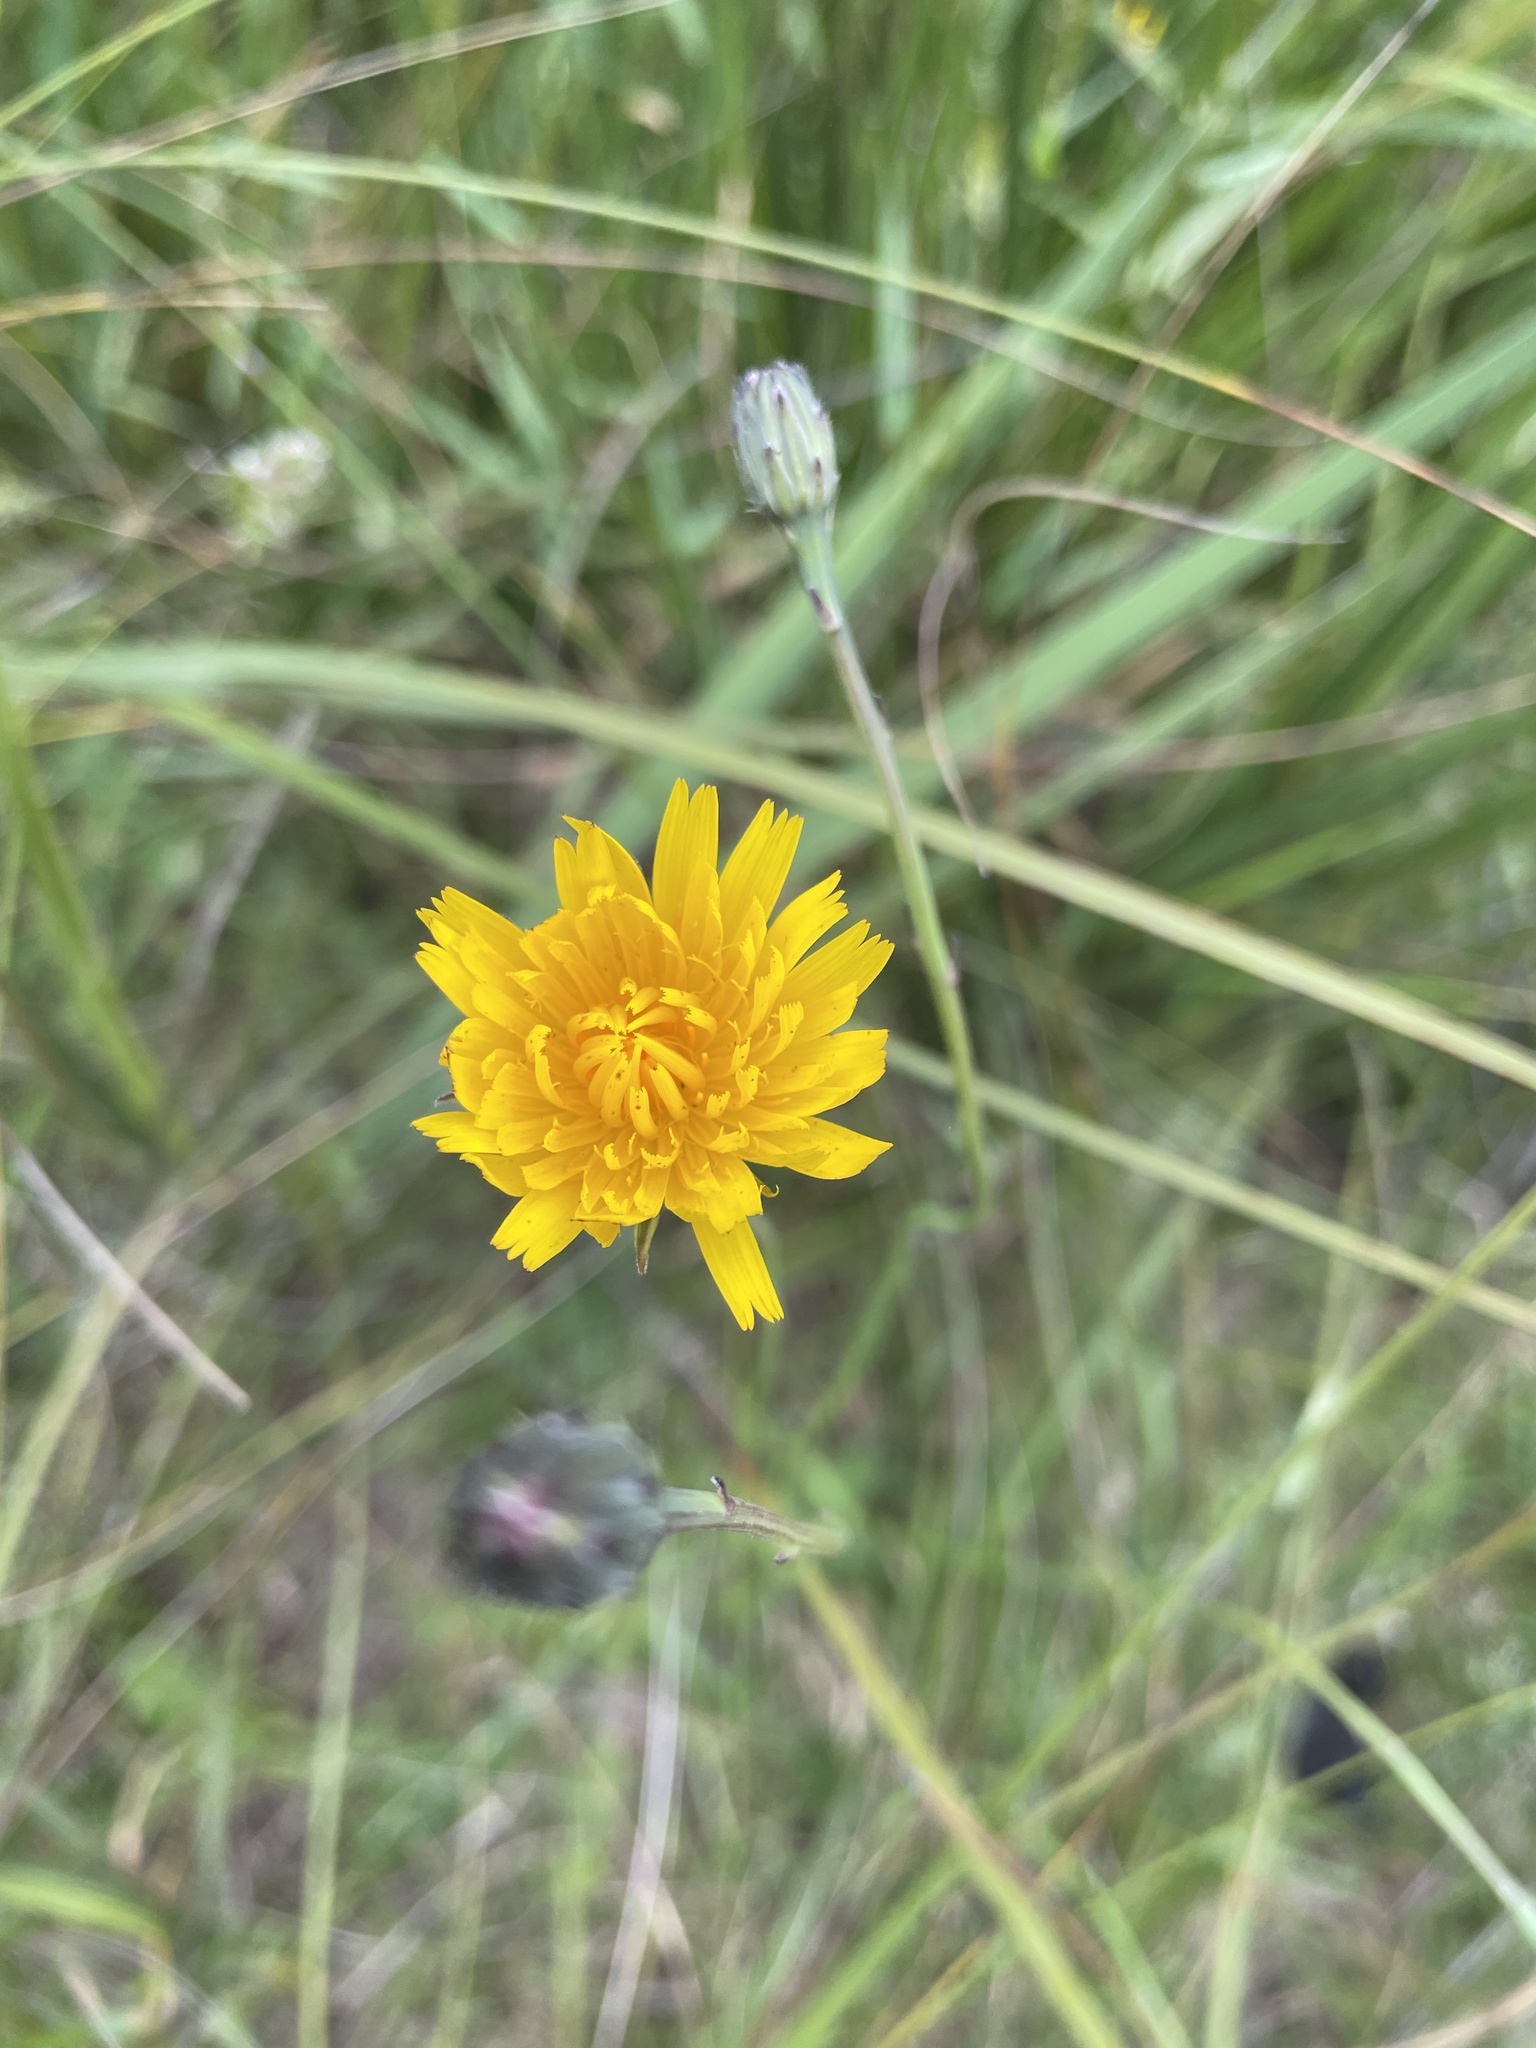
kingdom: Plantae
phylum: Tracheophyta
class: Magnoliopsida
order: Asterales
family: Asteraceae
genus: Hypochaeris
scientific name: Hypochaeris radicata
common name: Flatweed
